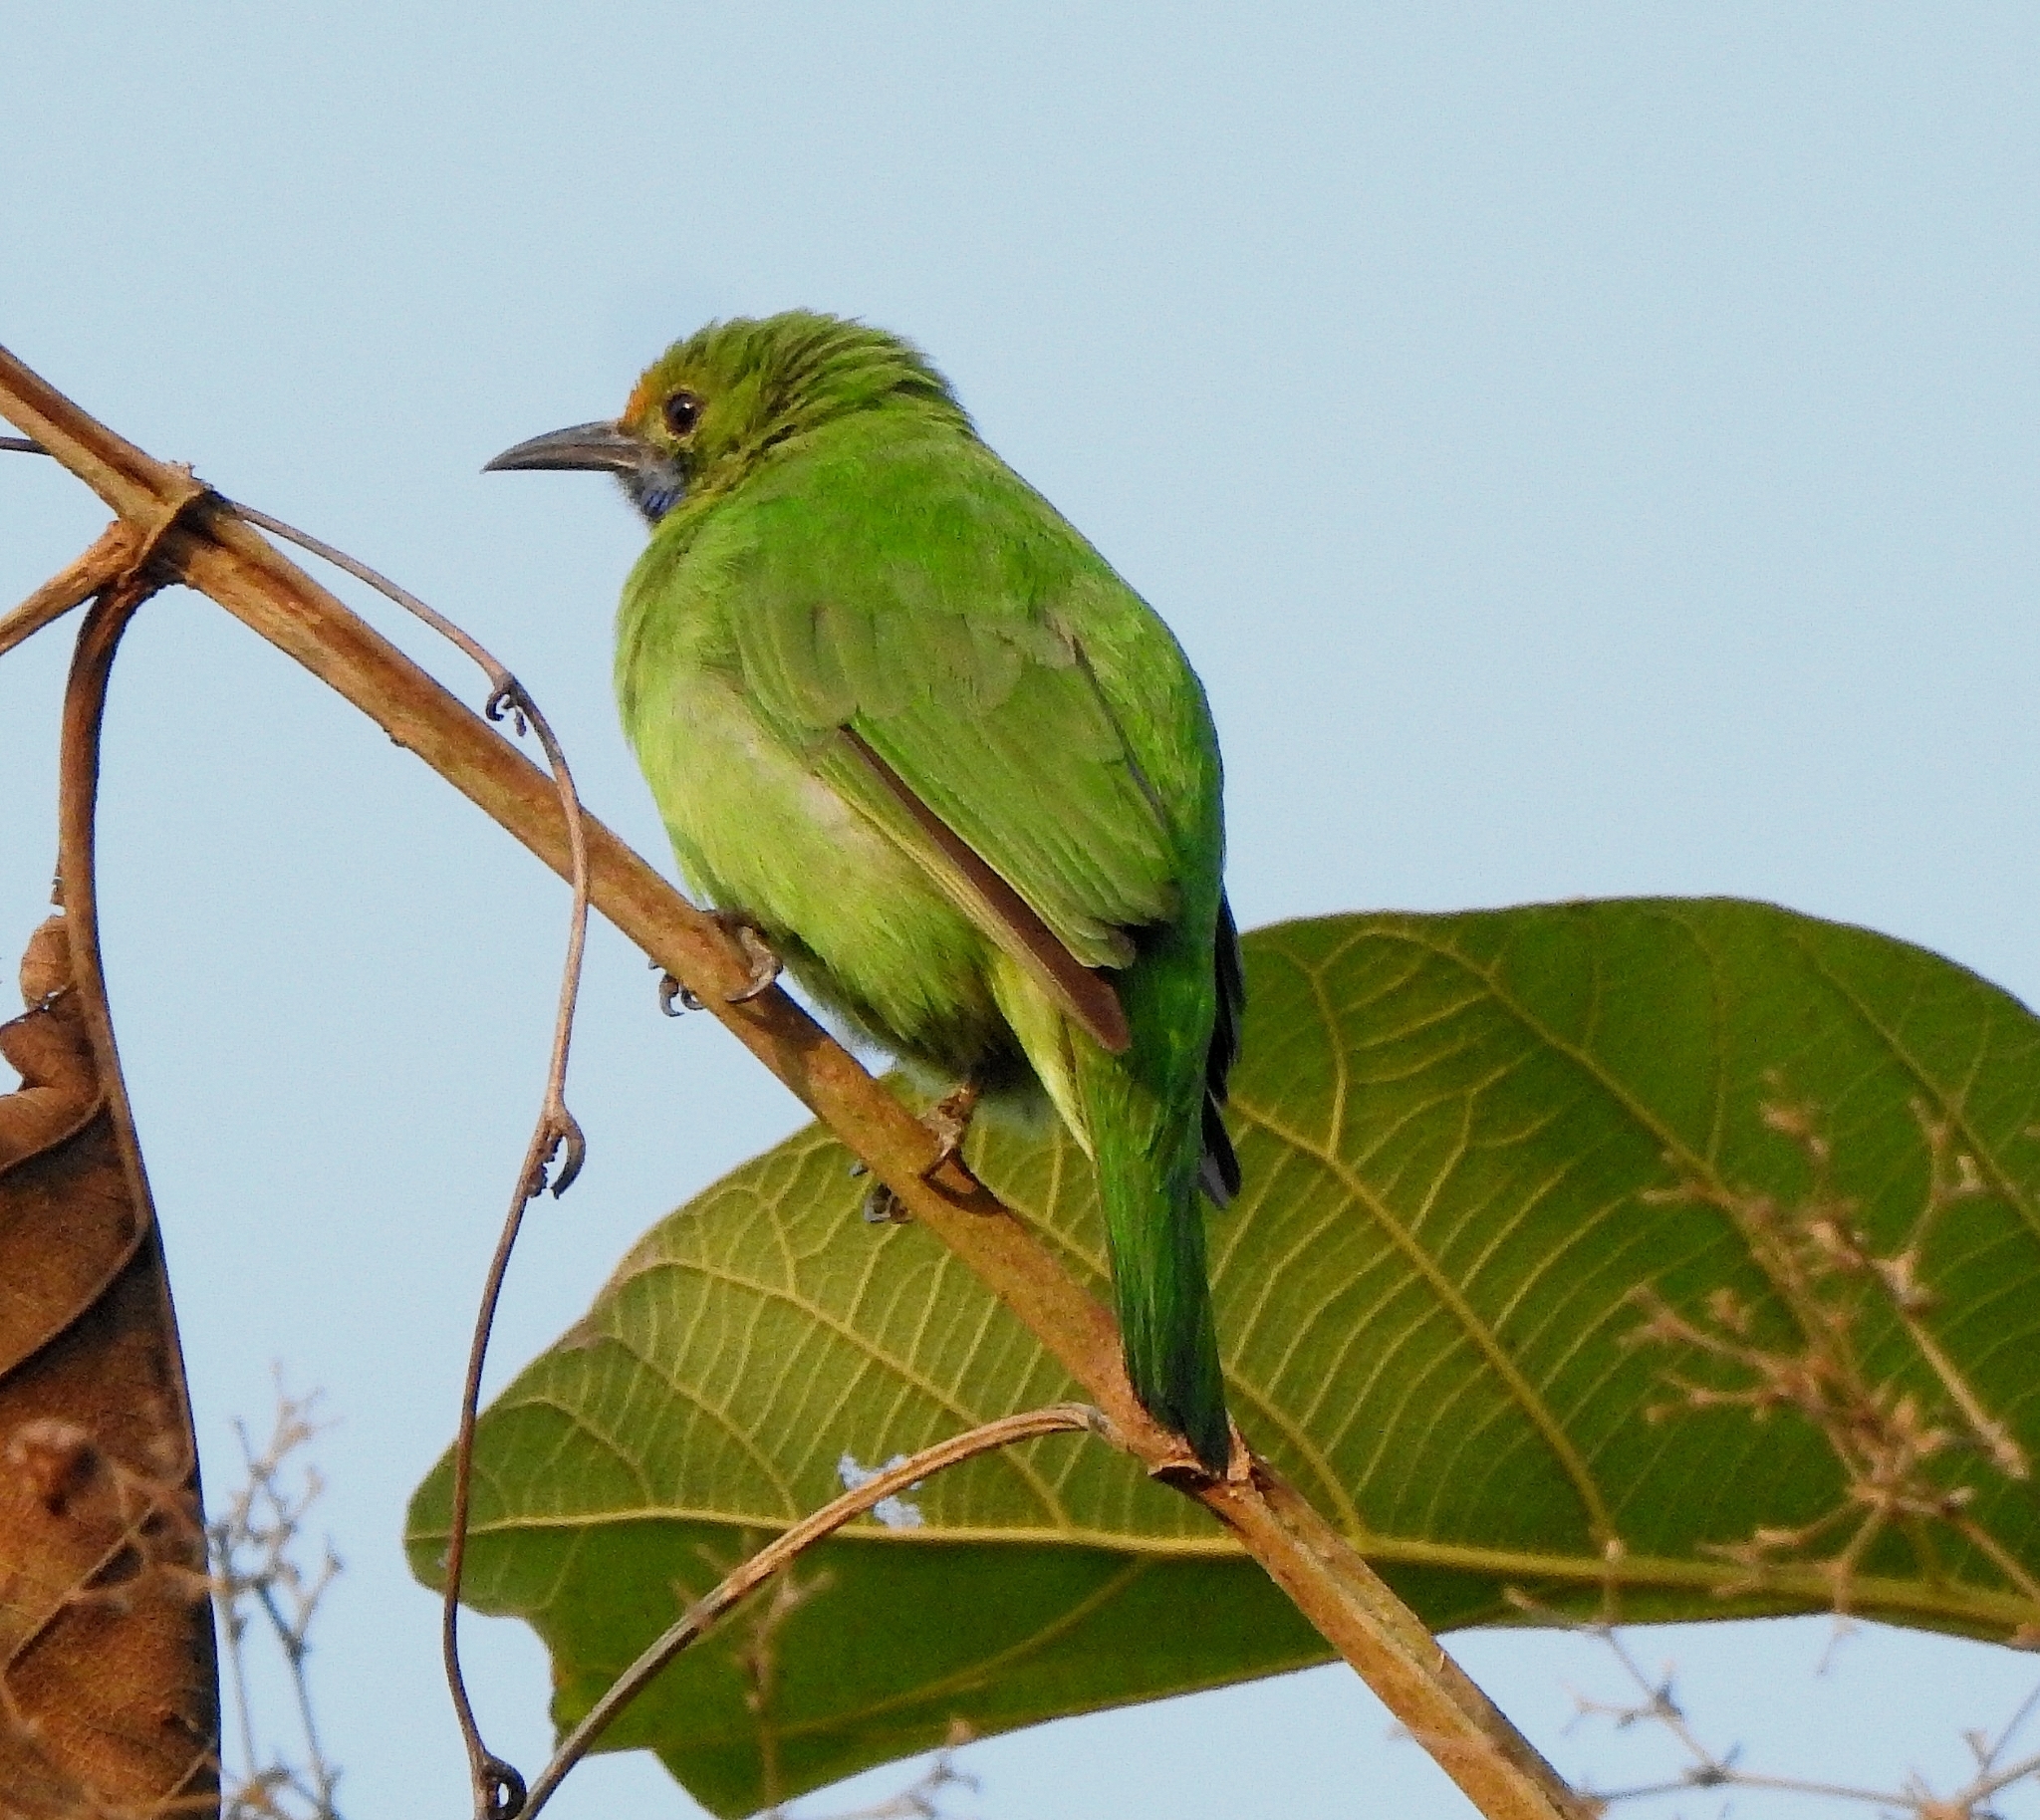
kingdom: Animalia
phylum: Chordata
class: Aves
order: Passeriformes
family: Chloropseidae
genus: Chloropsis
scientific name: Chloropsis aurifrons
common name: Golden-fronted leafbird
